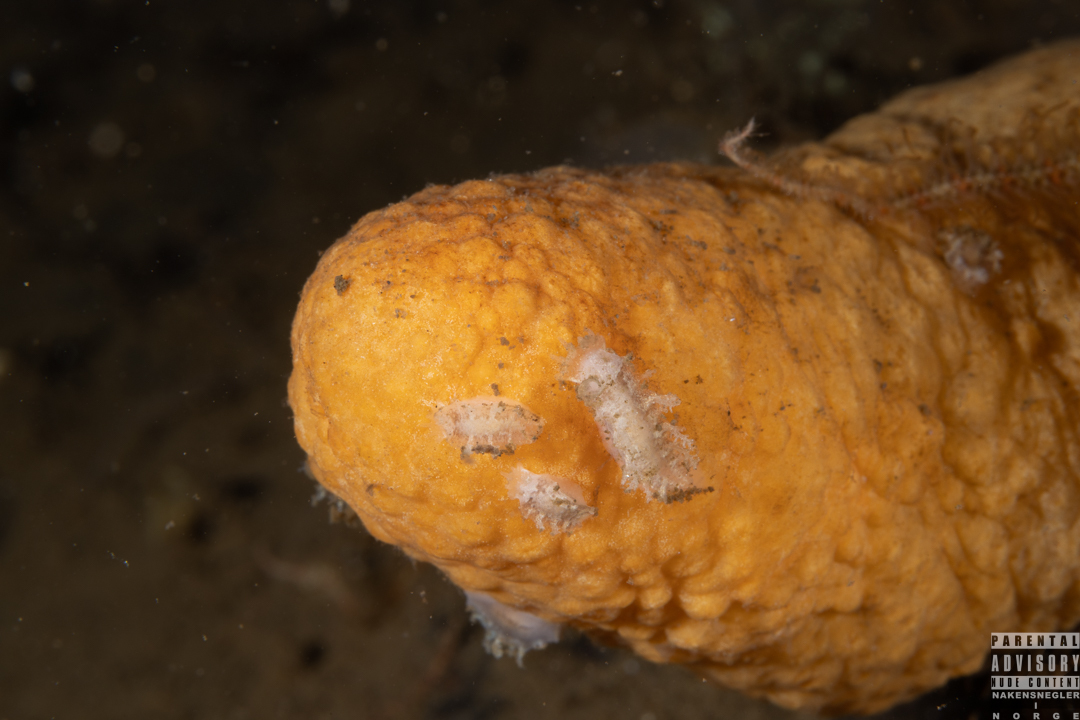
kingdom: Animalia
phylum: Mollusca
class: Gastropoda
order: Nudibranchia
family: Tritoniidae
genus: Duvaucelia
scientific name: Duvaucelia plebeia
